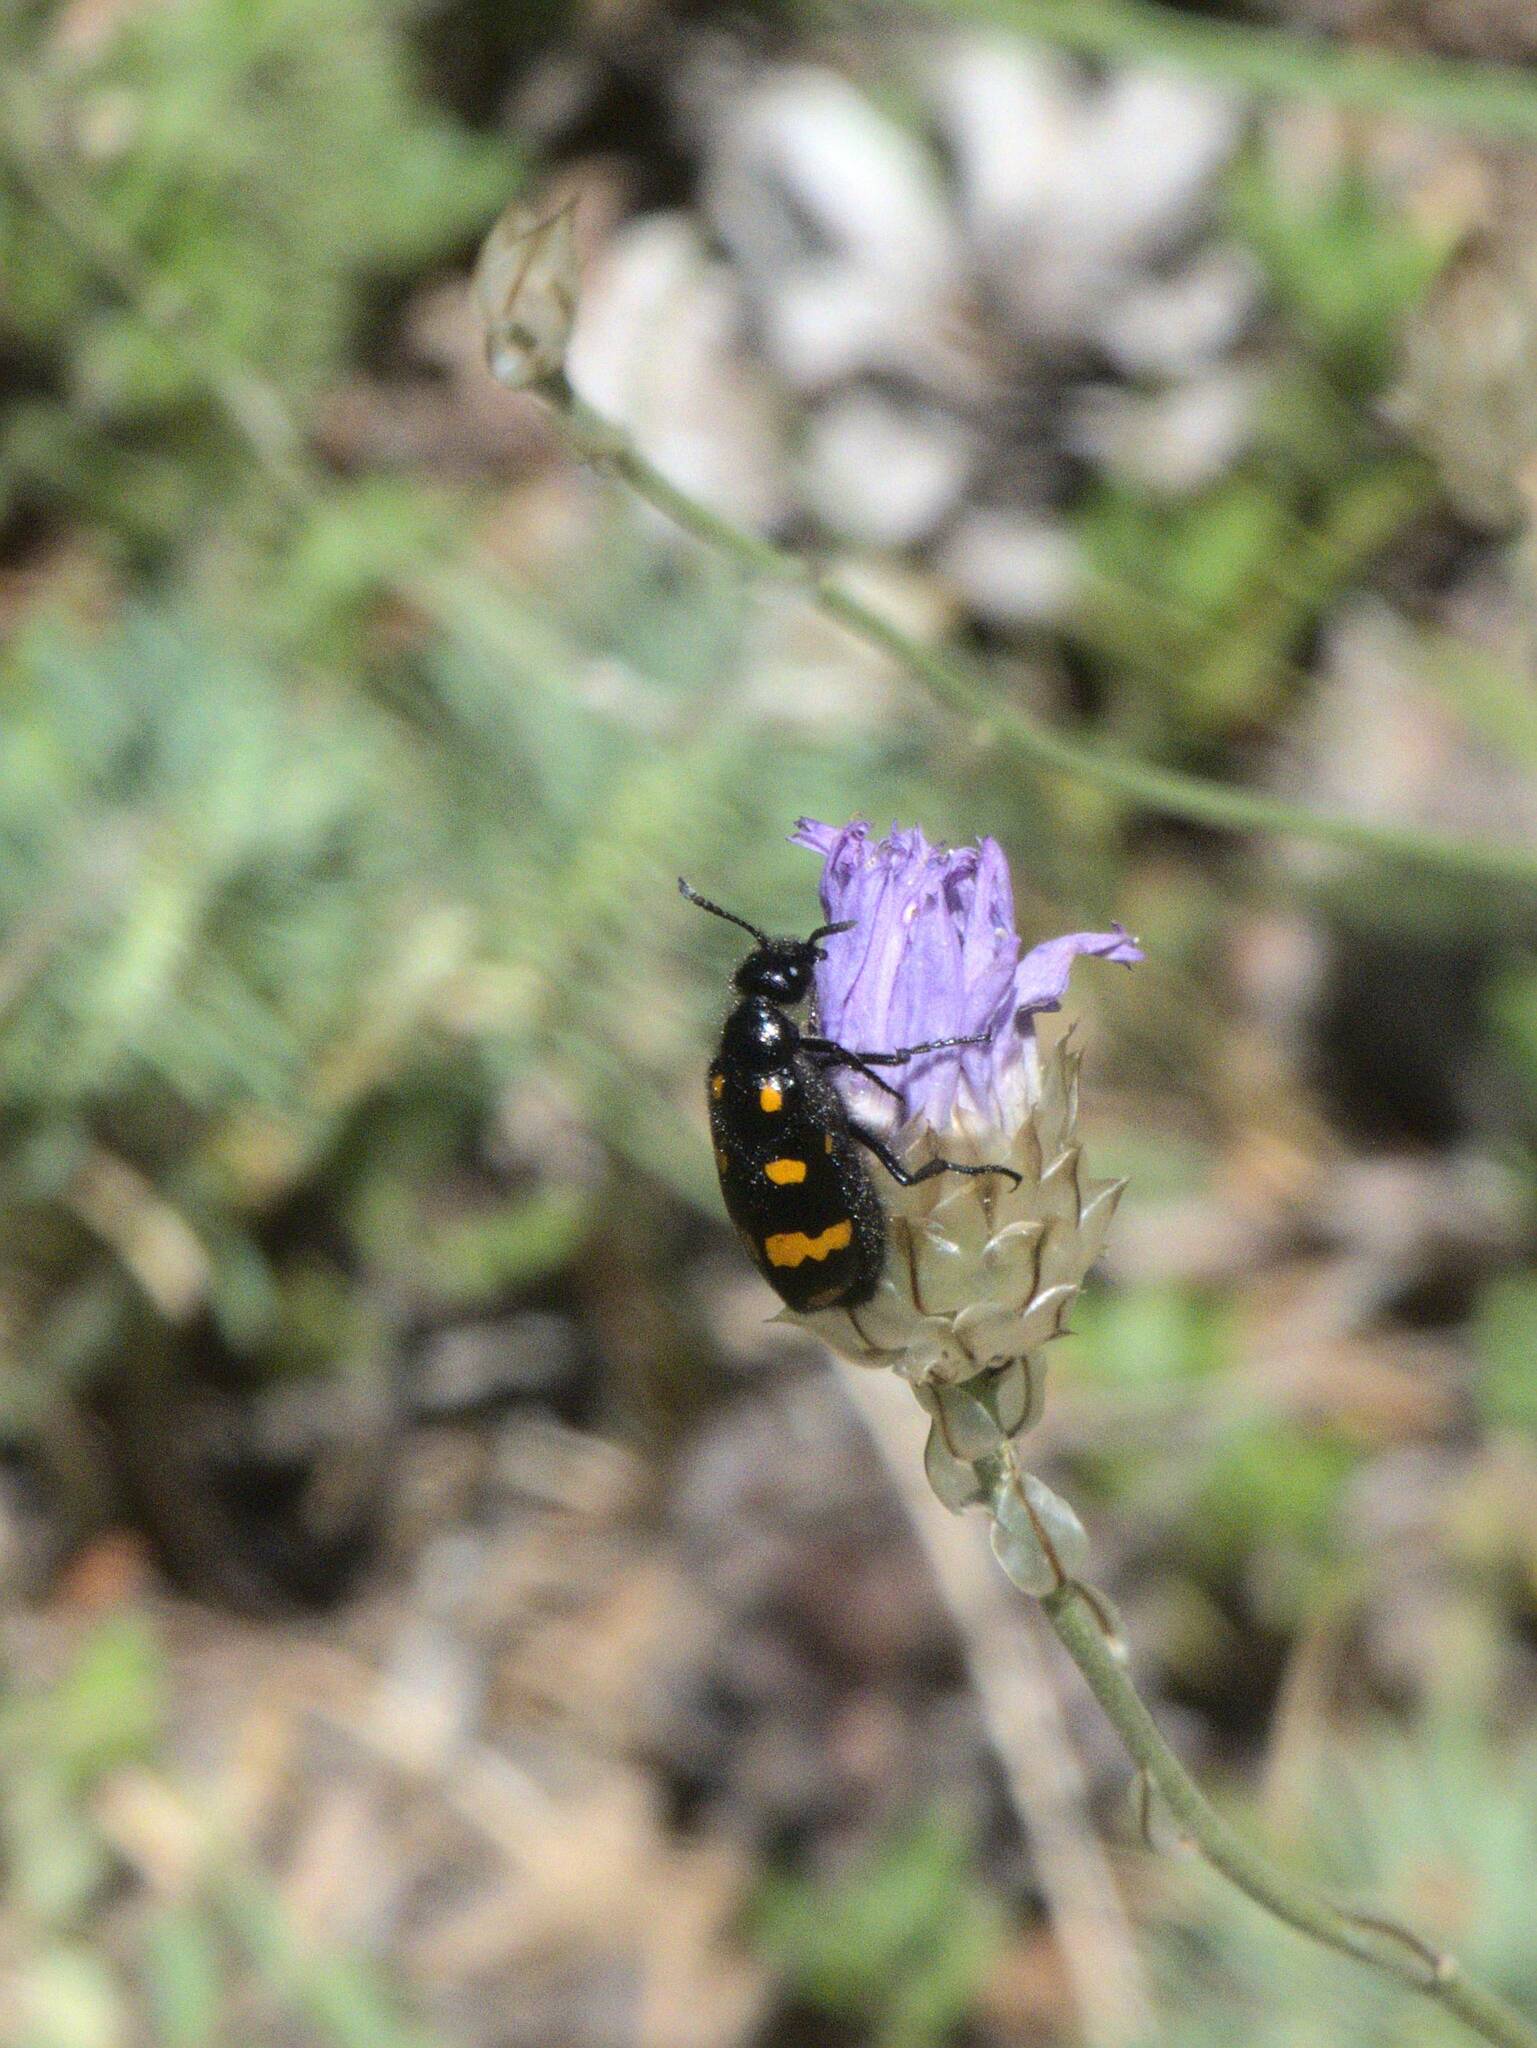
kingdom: Animalia
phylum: Arthropoda
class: Insecta
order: Coleoptera
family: Meloidae
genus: Hycleus
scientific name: Hycleus polymorphus
